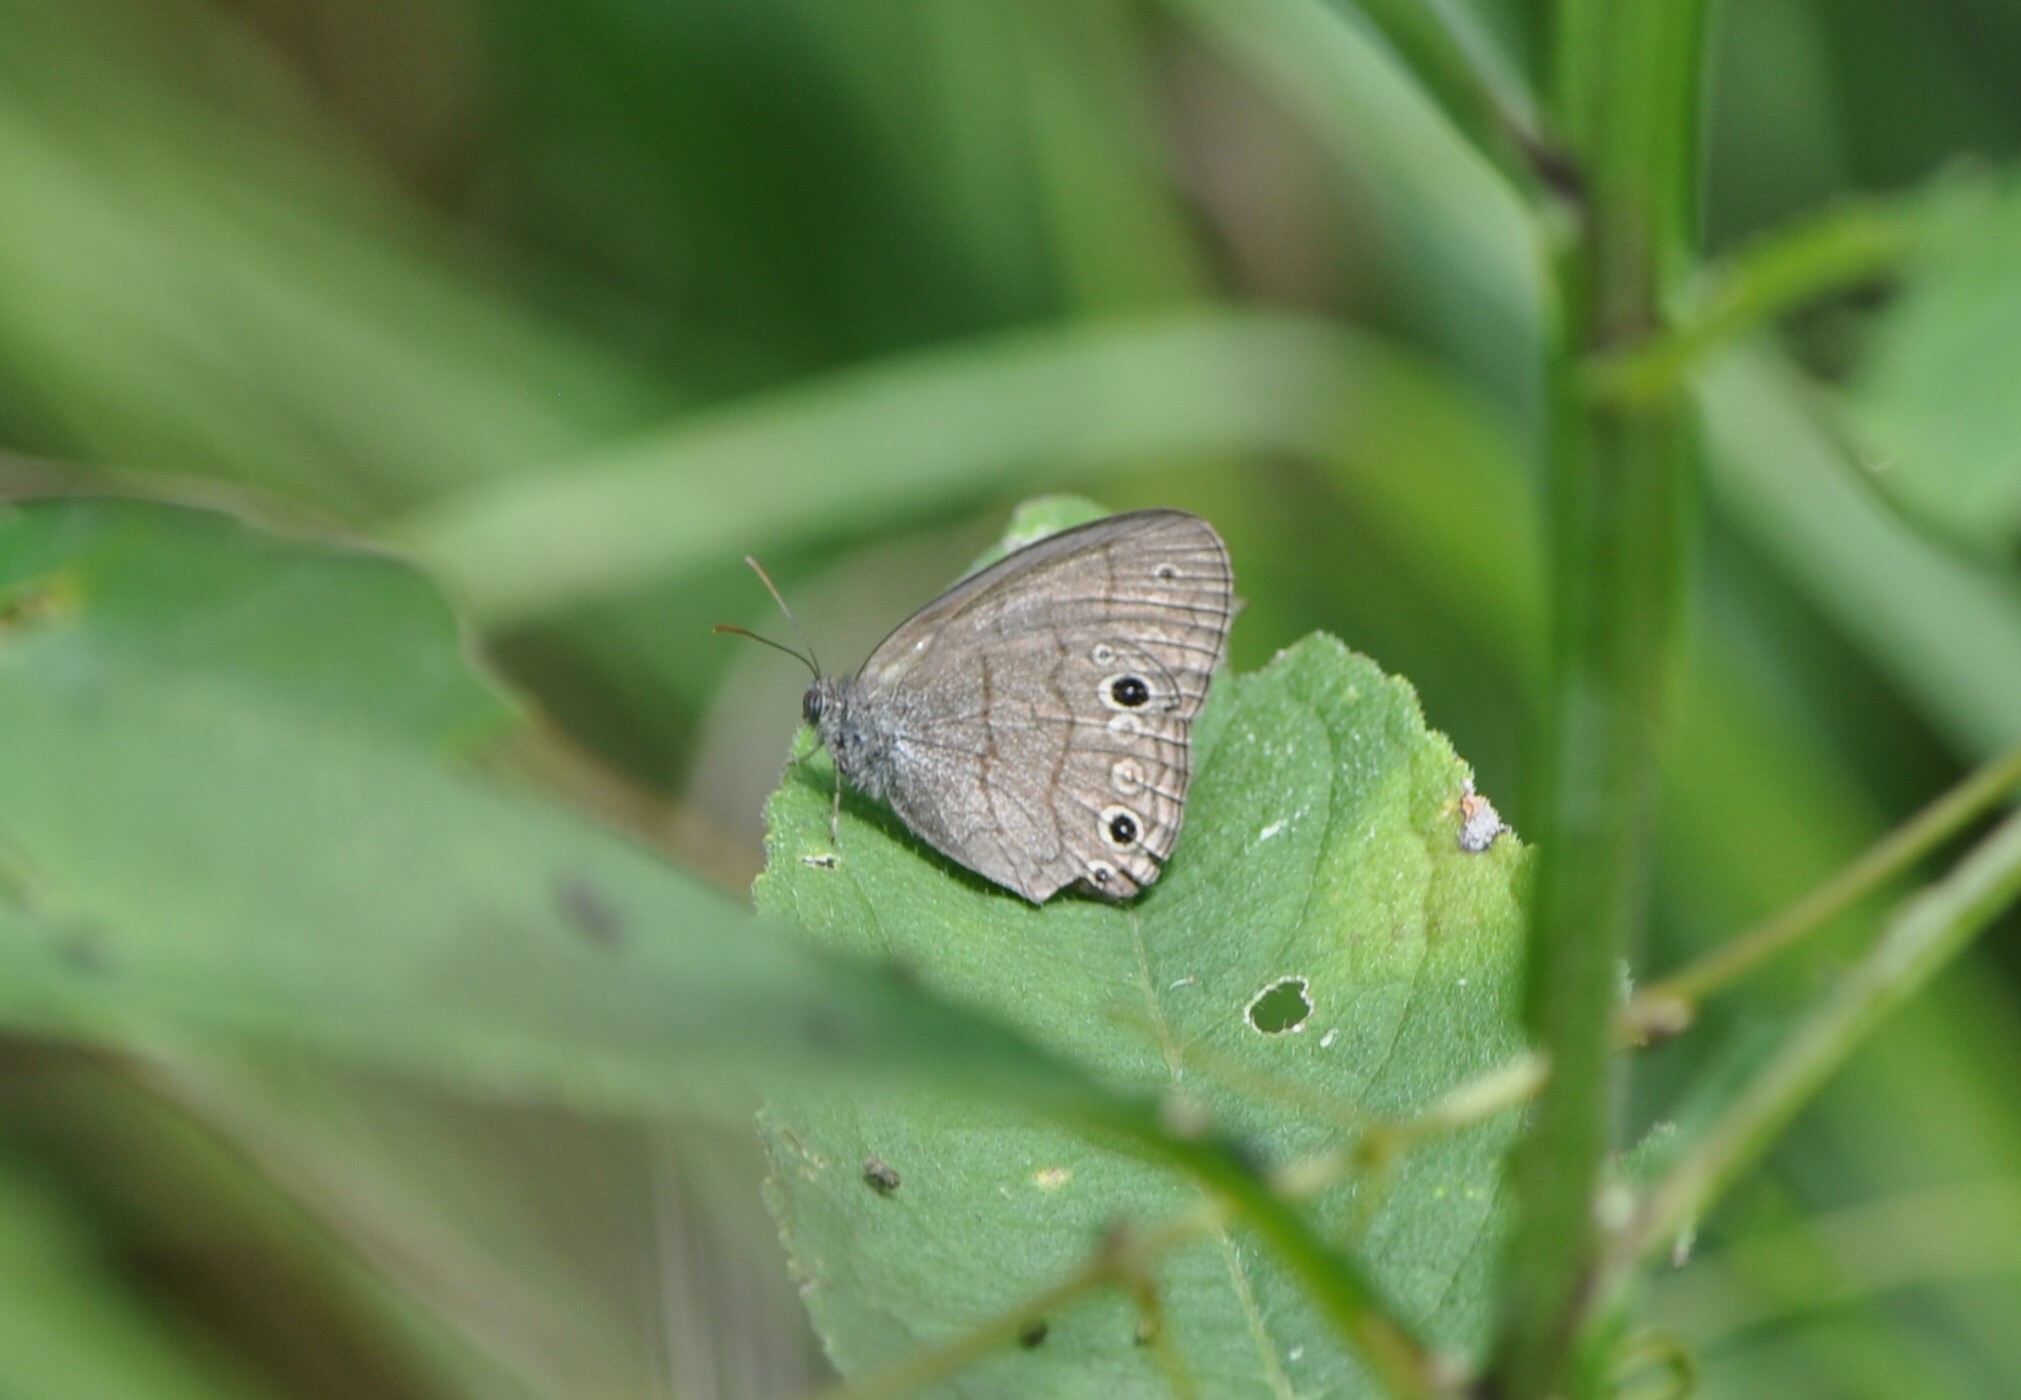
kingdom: Animalia
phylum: Arthropoda
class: Insecta
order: Lepidoptera
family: Nymphalidae
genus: Hermeuptychia
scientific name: Hermeuptychia hermes
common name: Hermes satyr
